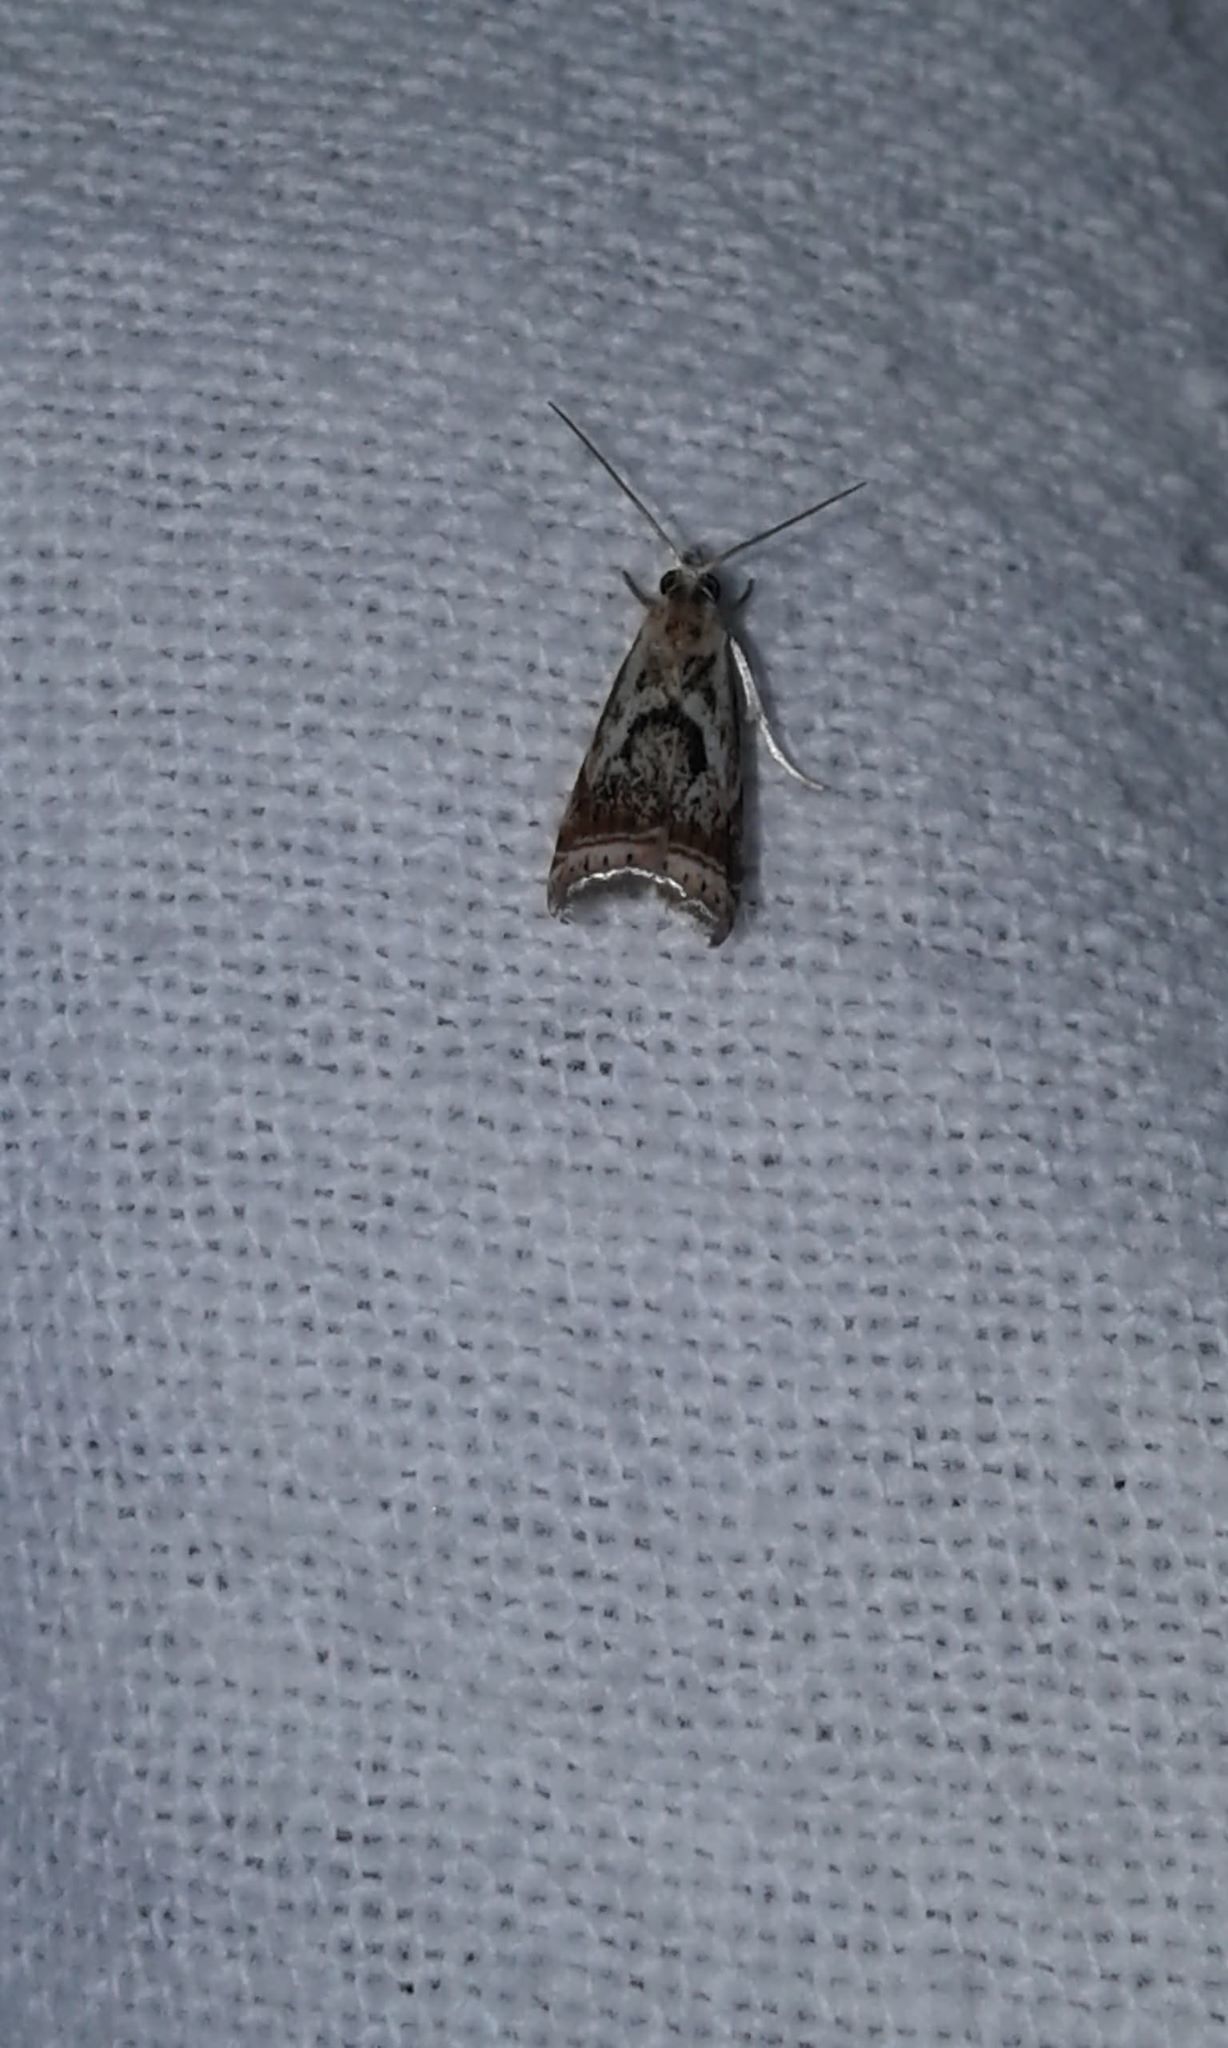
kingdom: Animalia
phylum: Arthropoda
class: Insecta
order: Lepidoptera
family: Crambidae
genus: Microcrambus
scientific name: Microcrambus elegans
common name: Elegant grass-veneer
